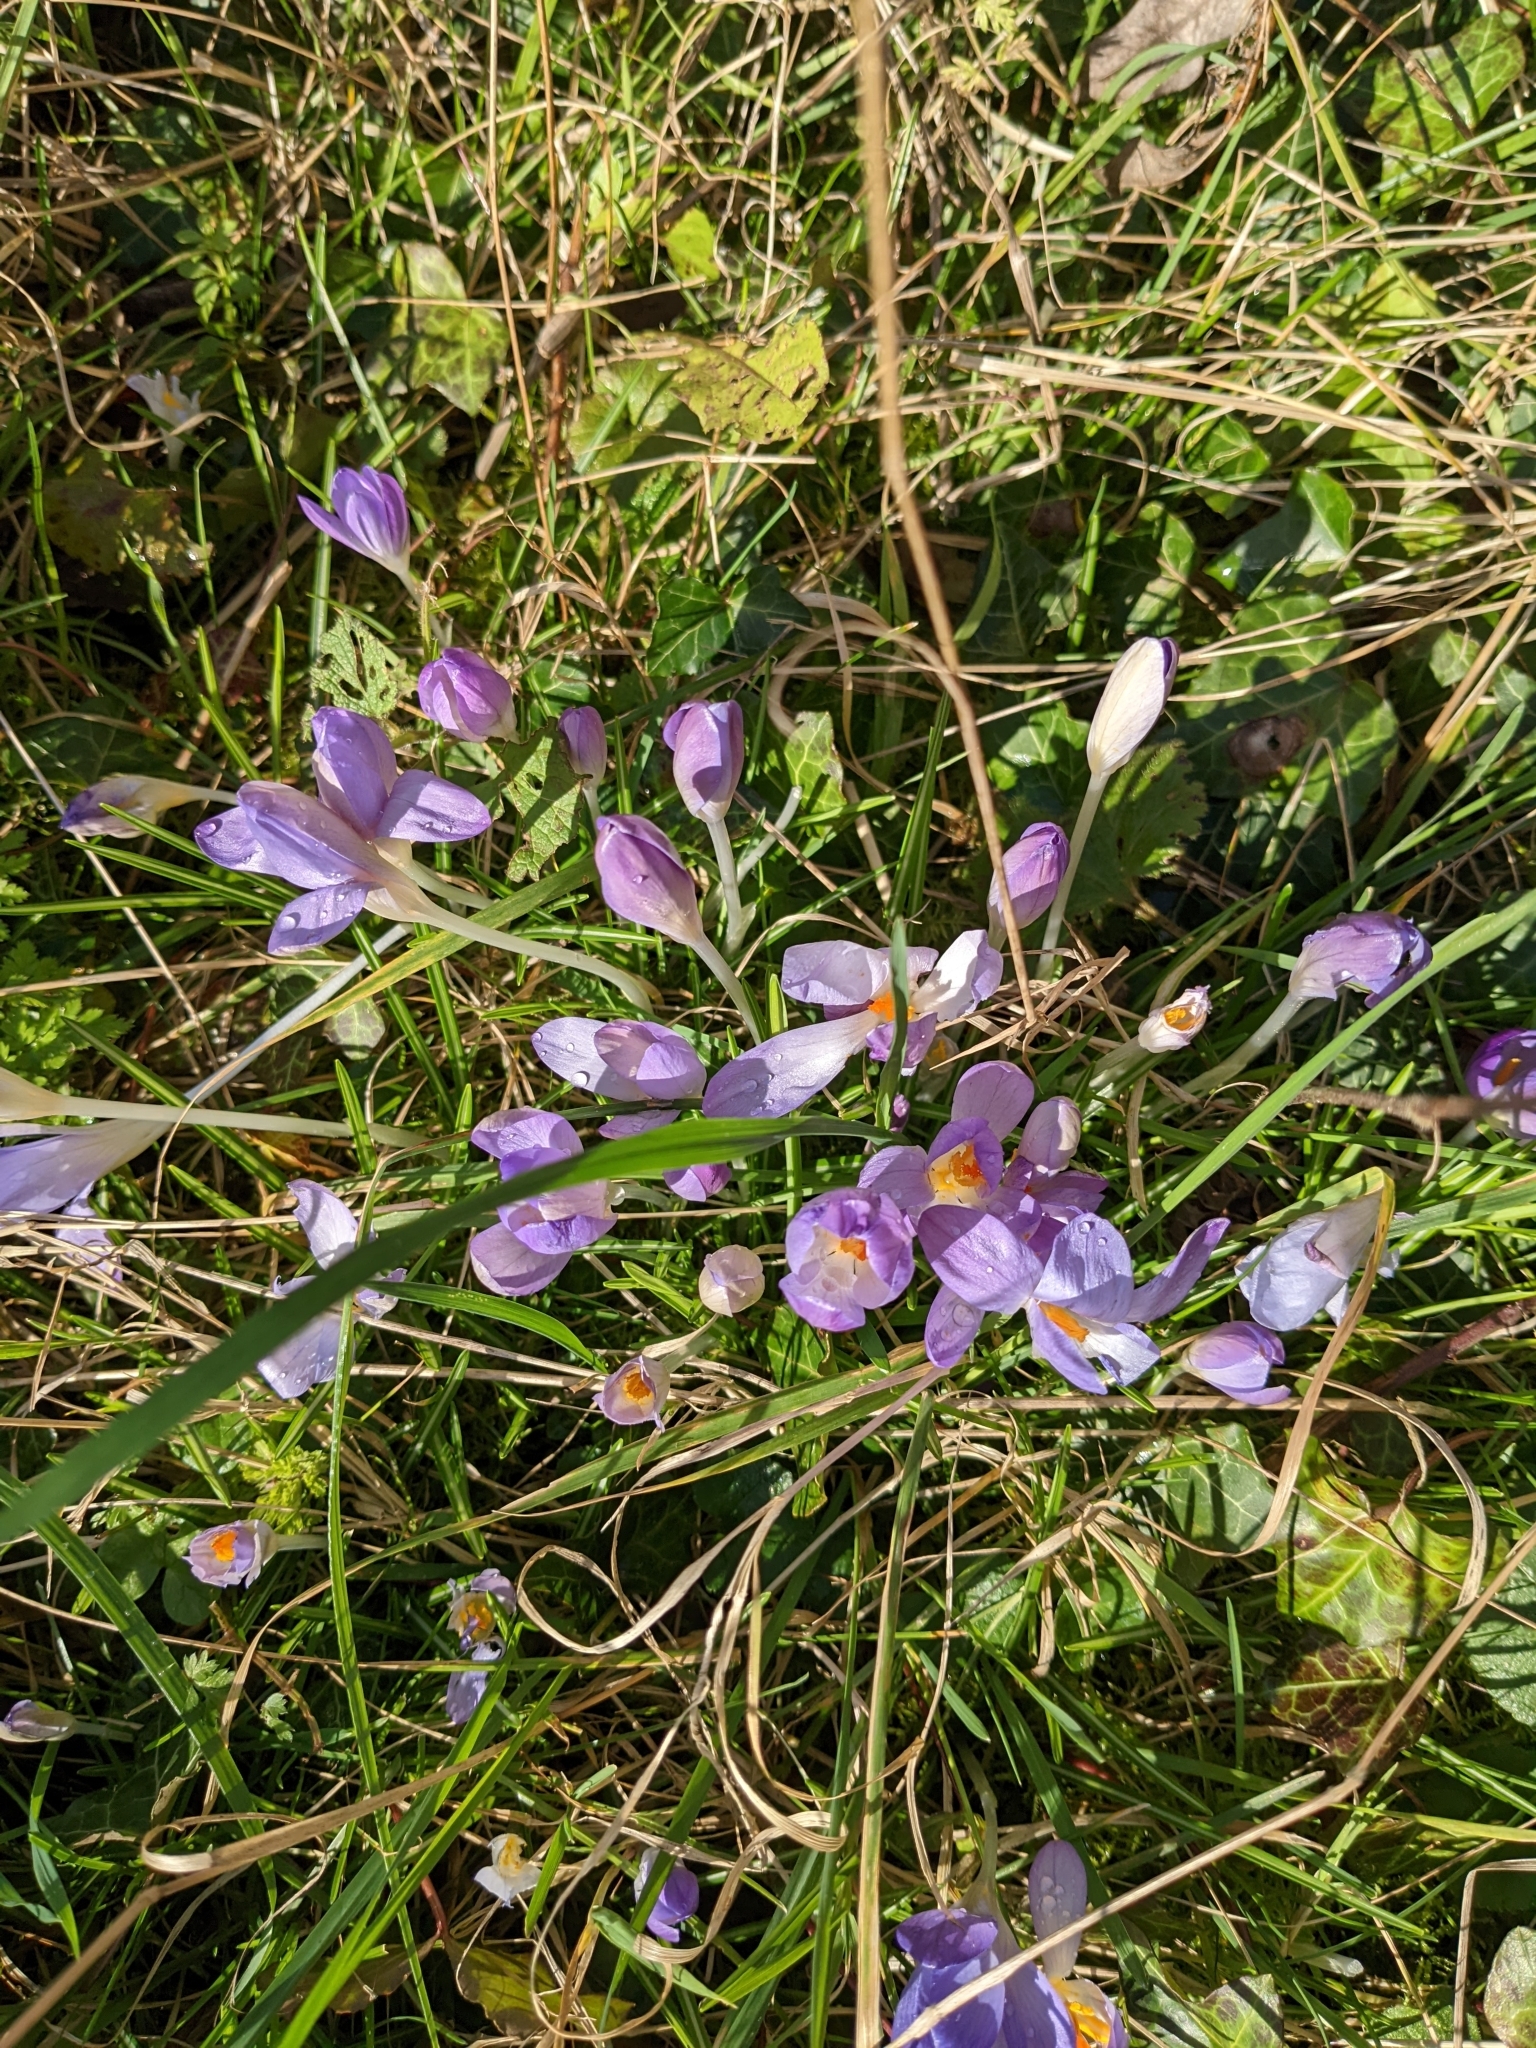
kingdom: Plantae
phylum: Tracheophyta
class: Liliopsida
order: Asparagales
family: Iridaceae
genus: Crocus
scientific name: Crocus tommasinianus
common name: Early crocus
